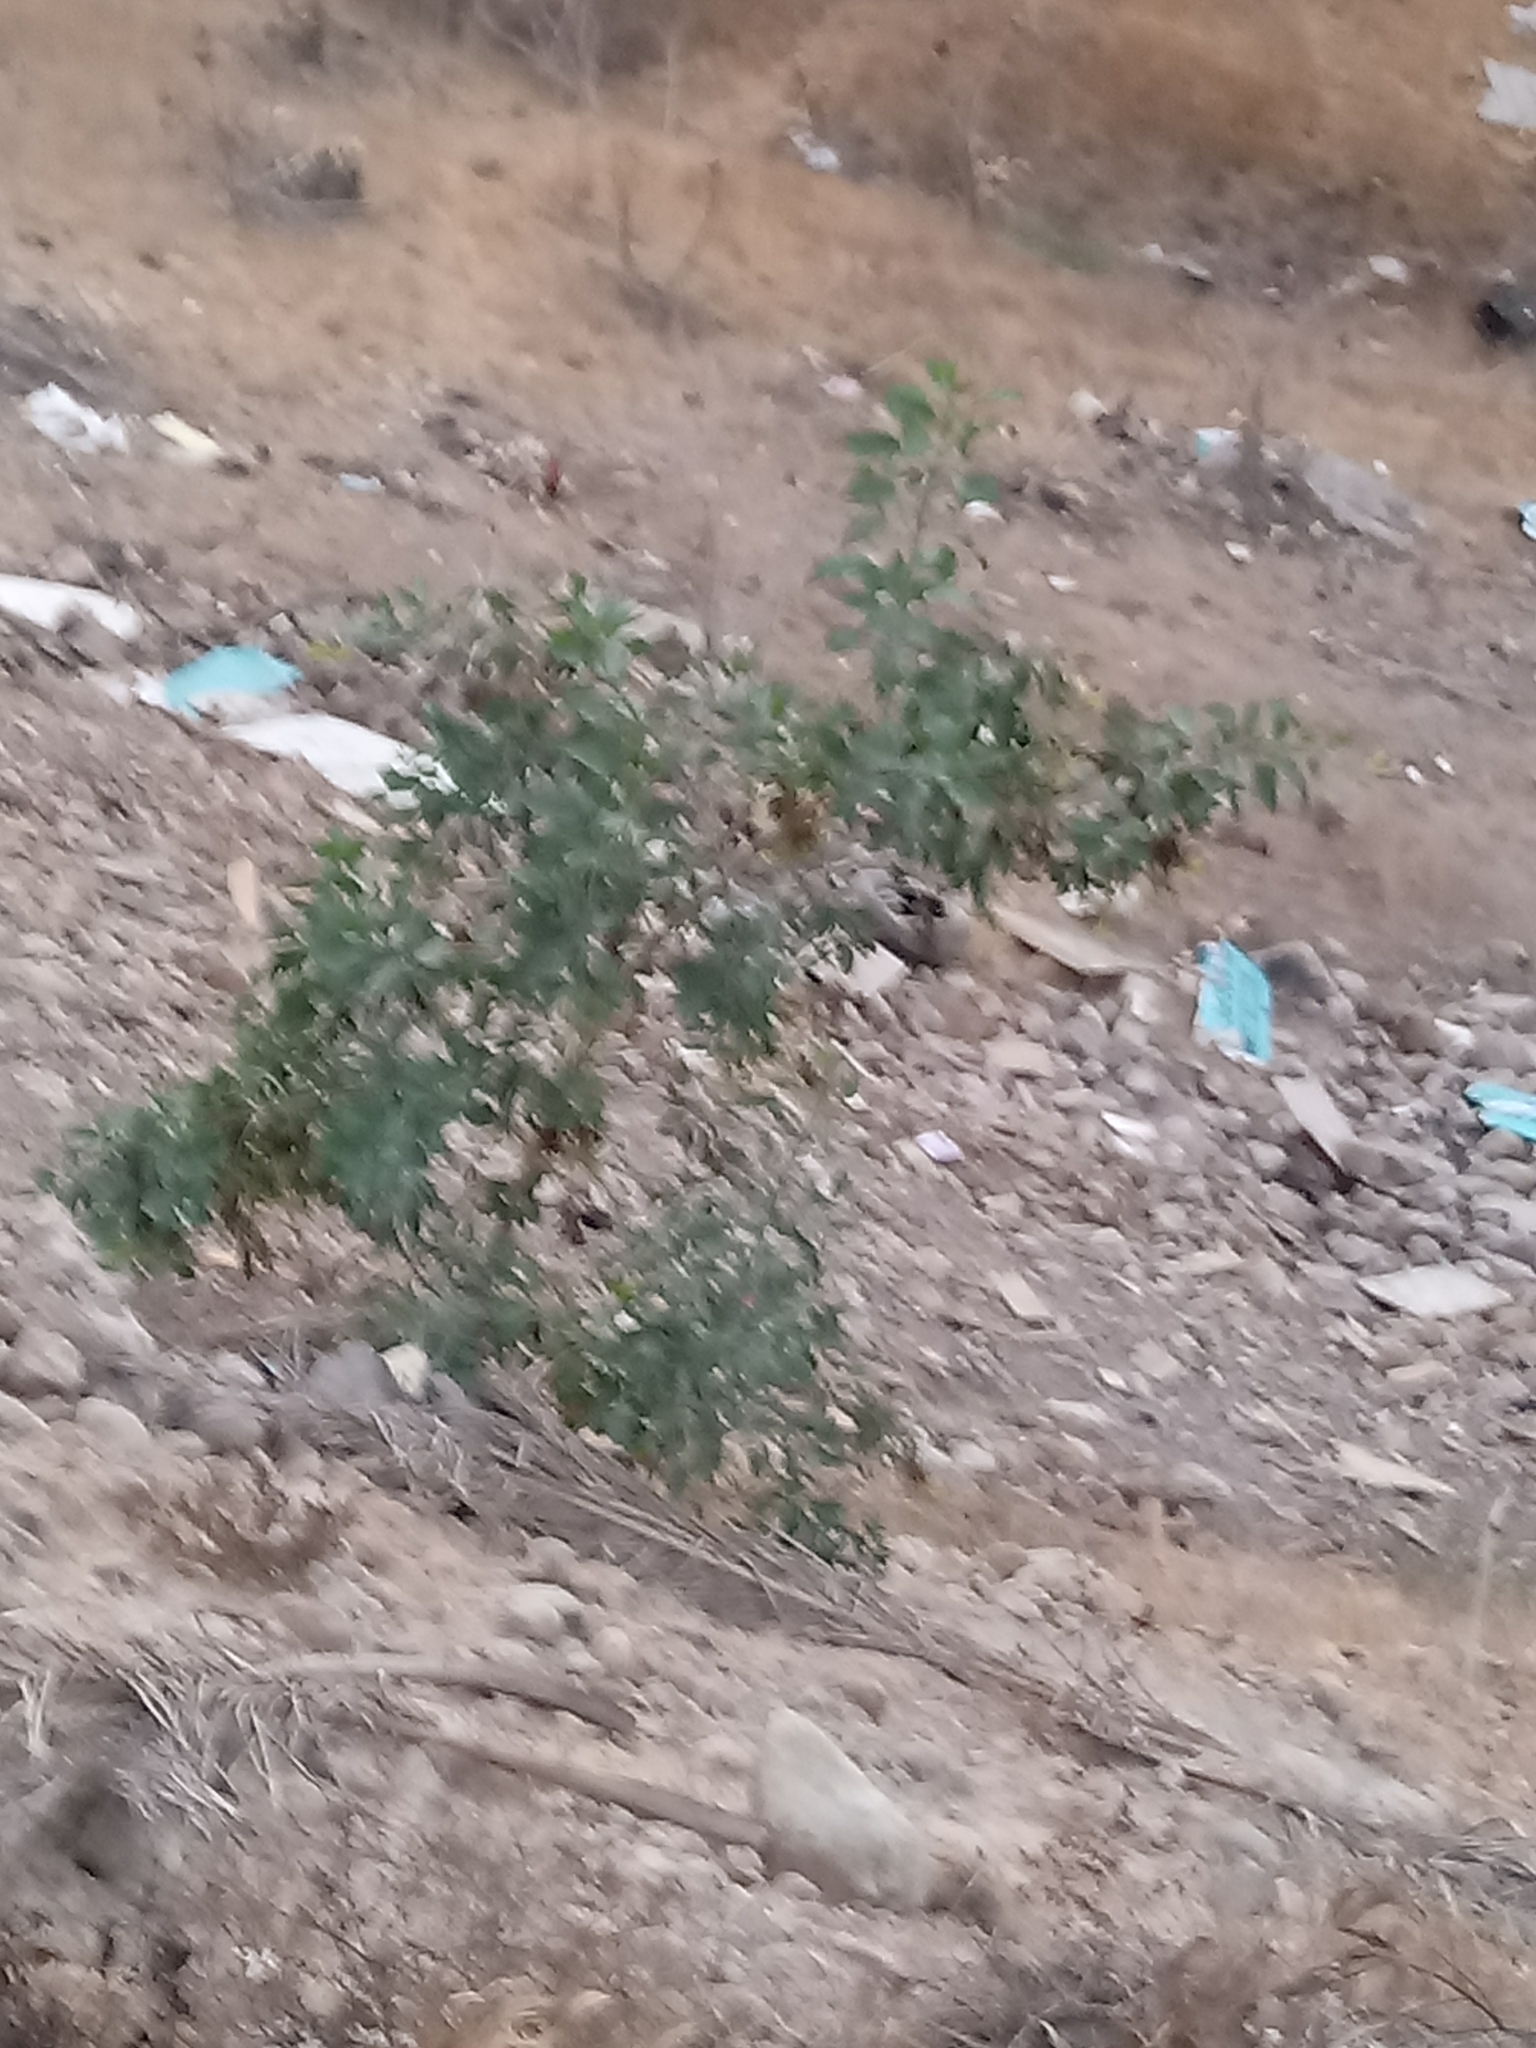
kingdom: Plantae
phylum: Tracheophyta
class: Magnoliopsida
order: Solanales
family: Solanaceae
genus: Nicotiana
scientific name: Nicotiana glauca
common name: Tree tobacco
